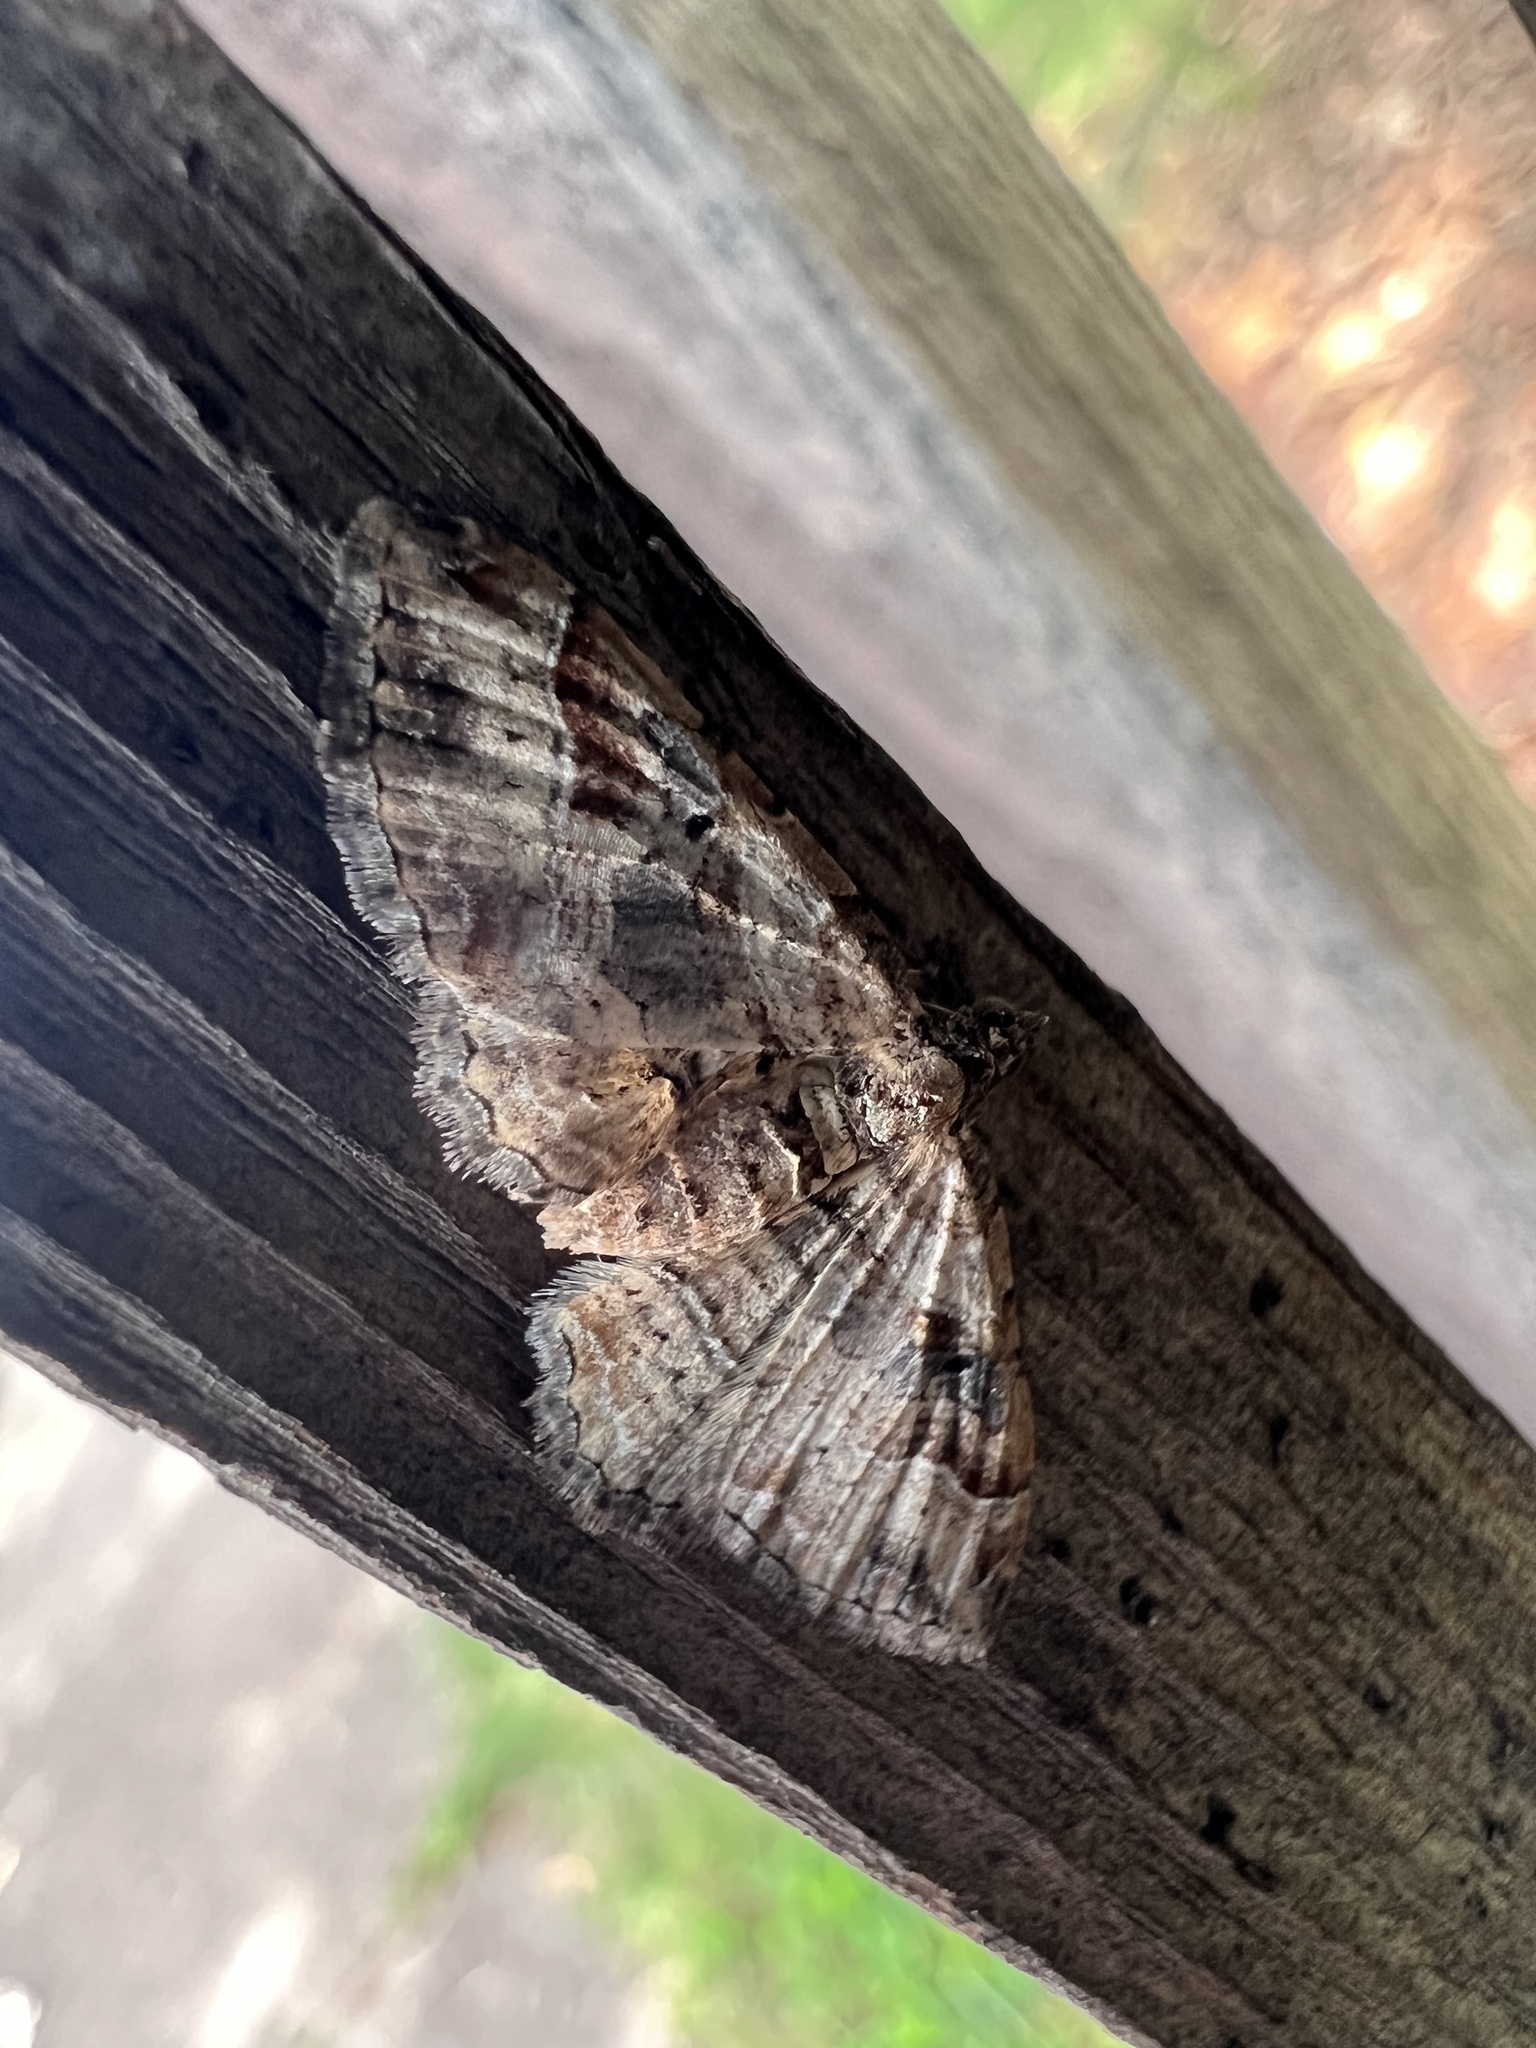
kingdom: Animalia
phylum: Arthropoda
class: Insecta
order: Lepidoptera
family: Geometridae
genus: Costaconvexa
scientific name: Costaconvexa centrostrigaria
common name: Bent-line carpet
